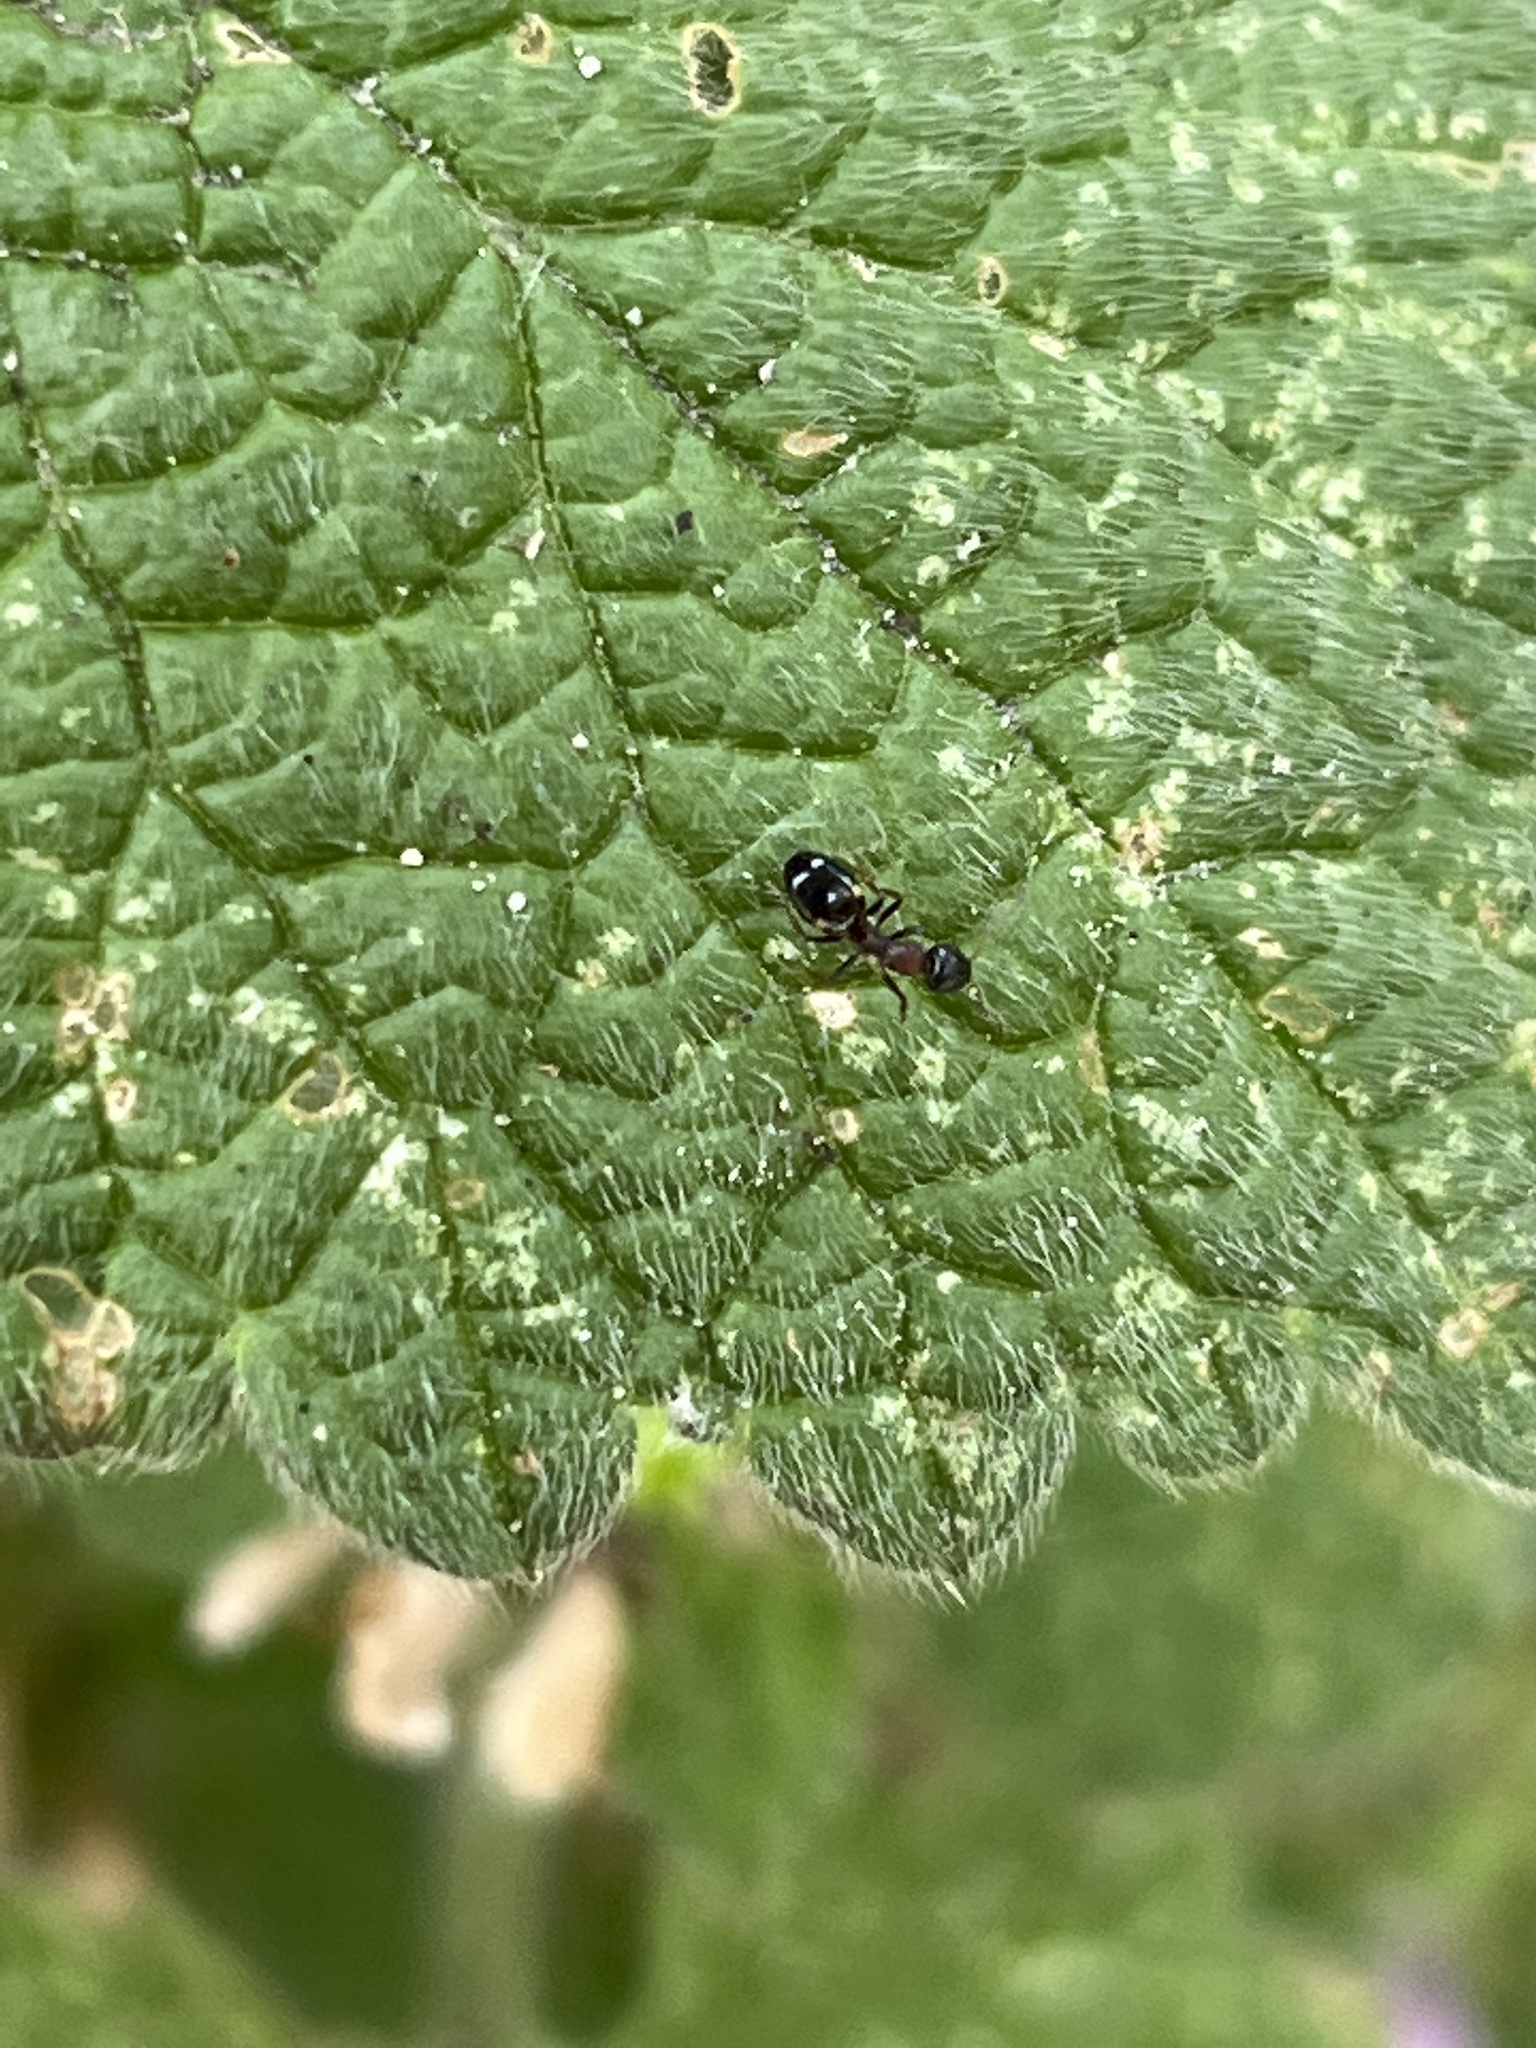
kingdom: Animalia
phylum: Arthropoda
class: Insecta
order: Hymenoptera
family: Formicidae
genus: Dolichoderus
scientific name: Dolichoderus quadripunctatus
